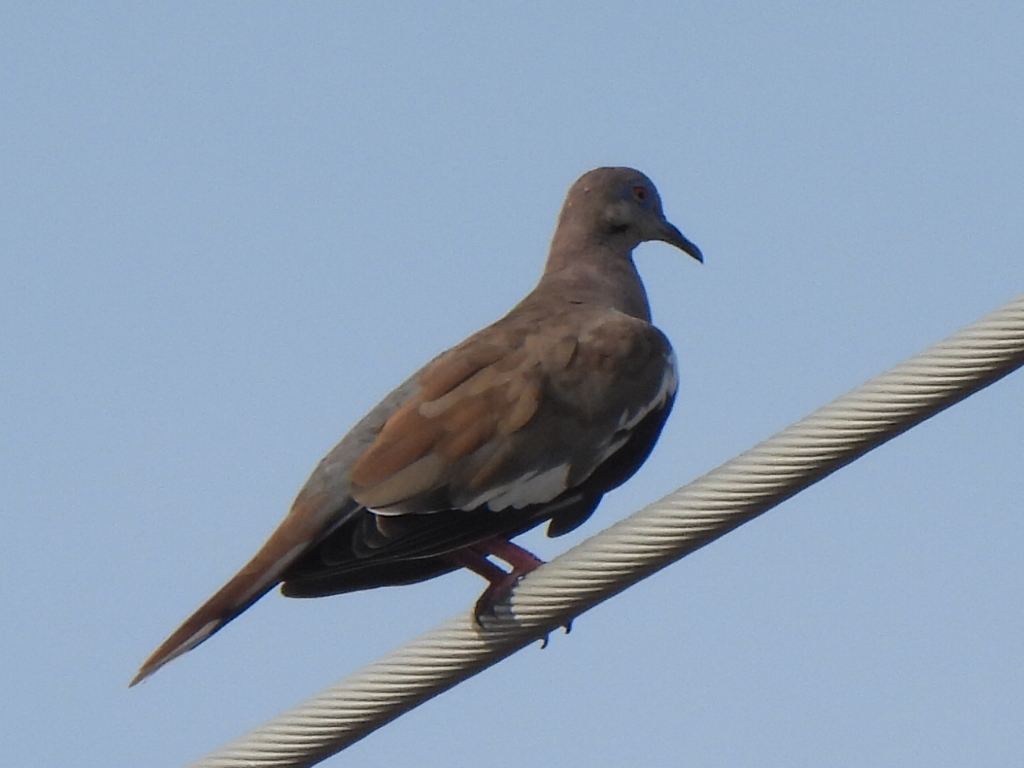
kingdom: Animalia
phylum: Chordata
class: Aves
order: Columbiformes
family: Columbidae
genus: Zenaida
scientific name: Zenaida asiatica
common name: White-winged dove
